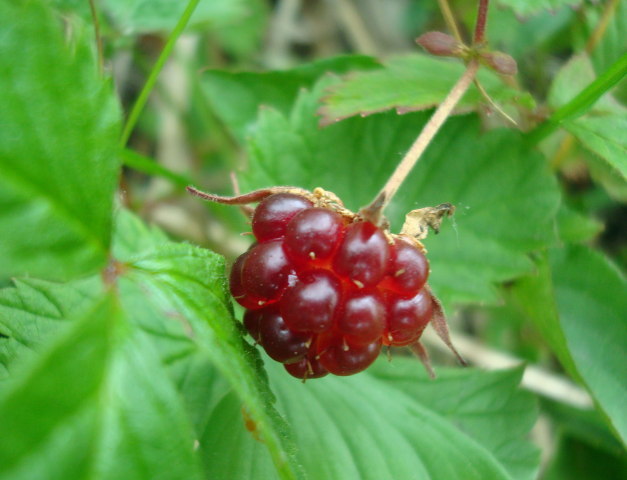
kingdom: Plantae
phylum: Tracheophyta
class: Magnoliopsida
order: Rosales
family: Rosaceae
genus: Rubus
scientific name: Rubus arcticus
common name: Arctic bramble
